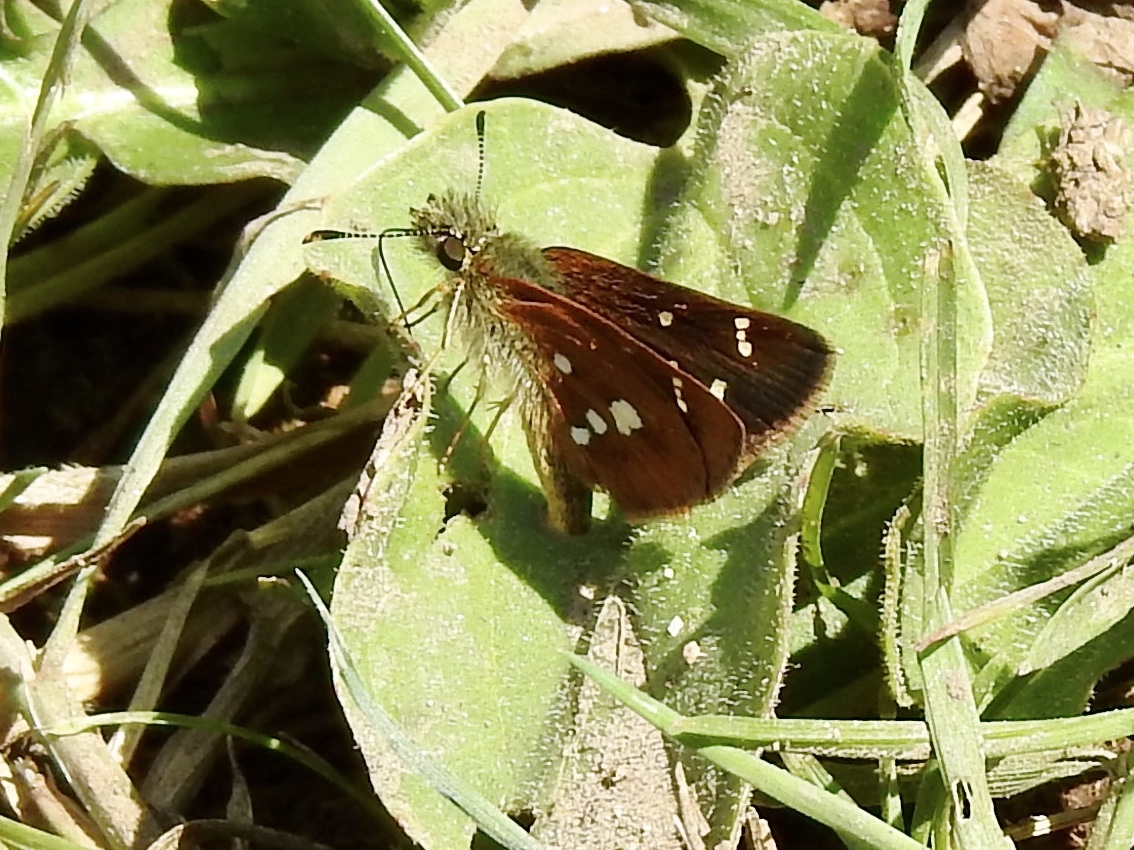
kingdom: Animalia
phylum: Arthropoda
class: Insecta
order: Lepidoptera
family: Hesperiidae
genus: Piruna
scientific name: Piruna polingii
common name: Four-spotted skipperling
